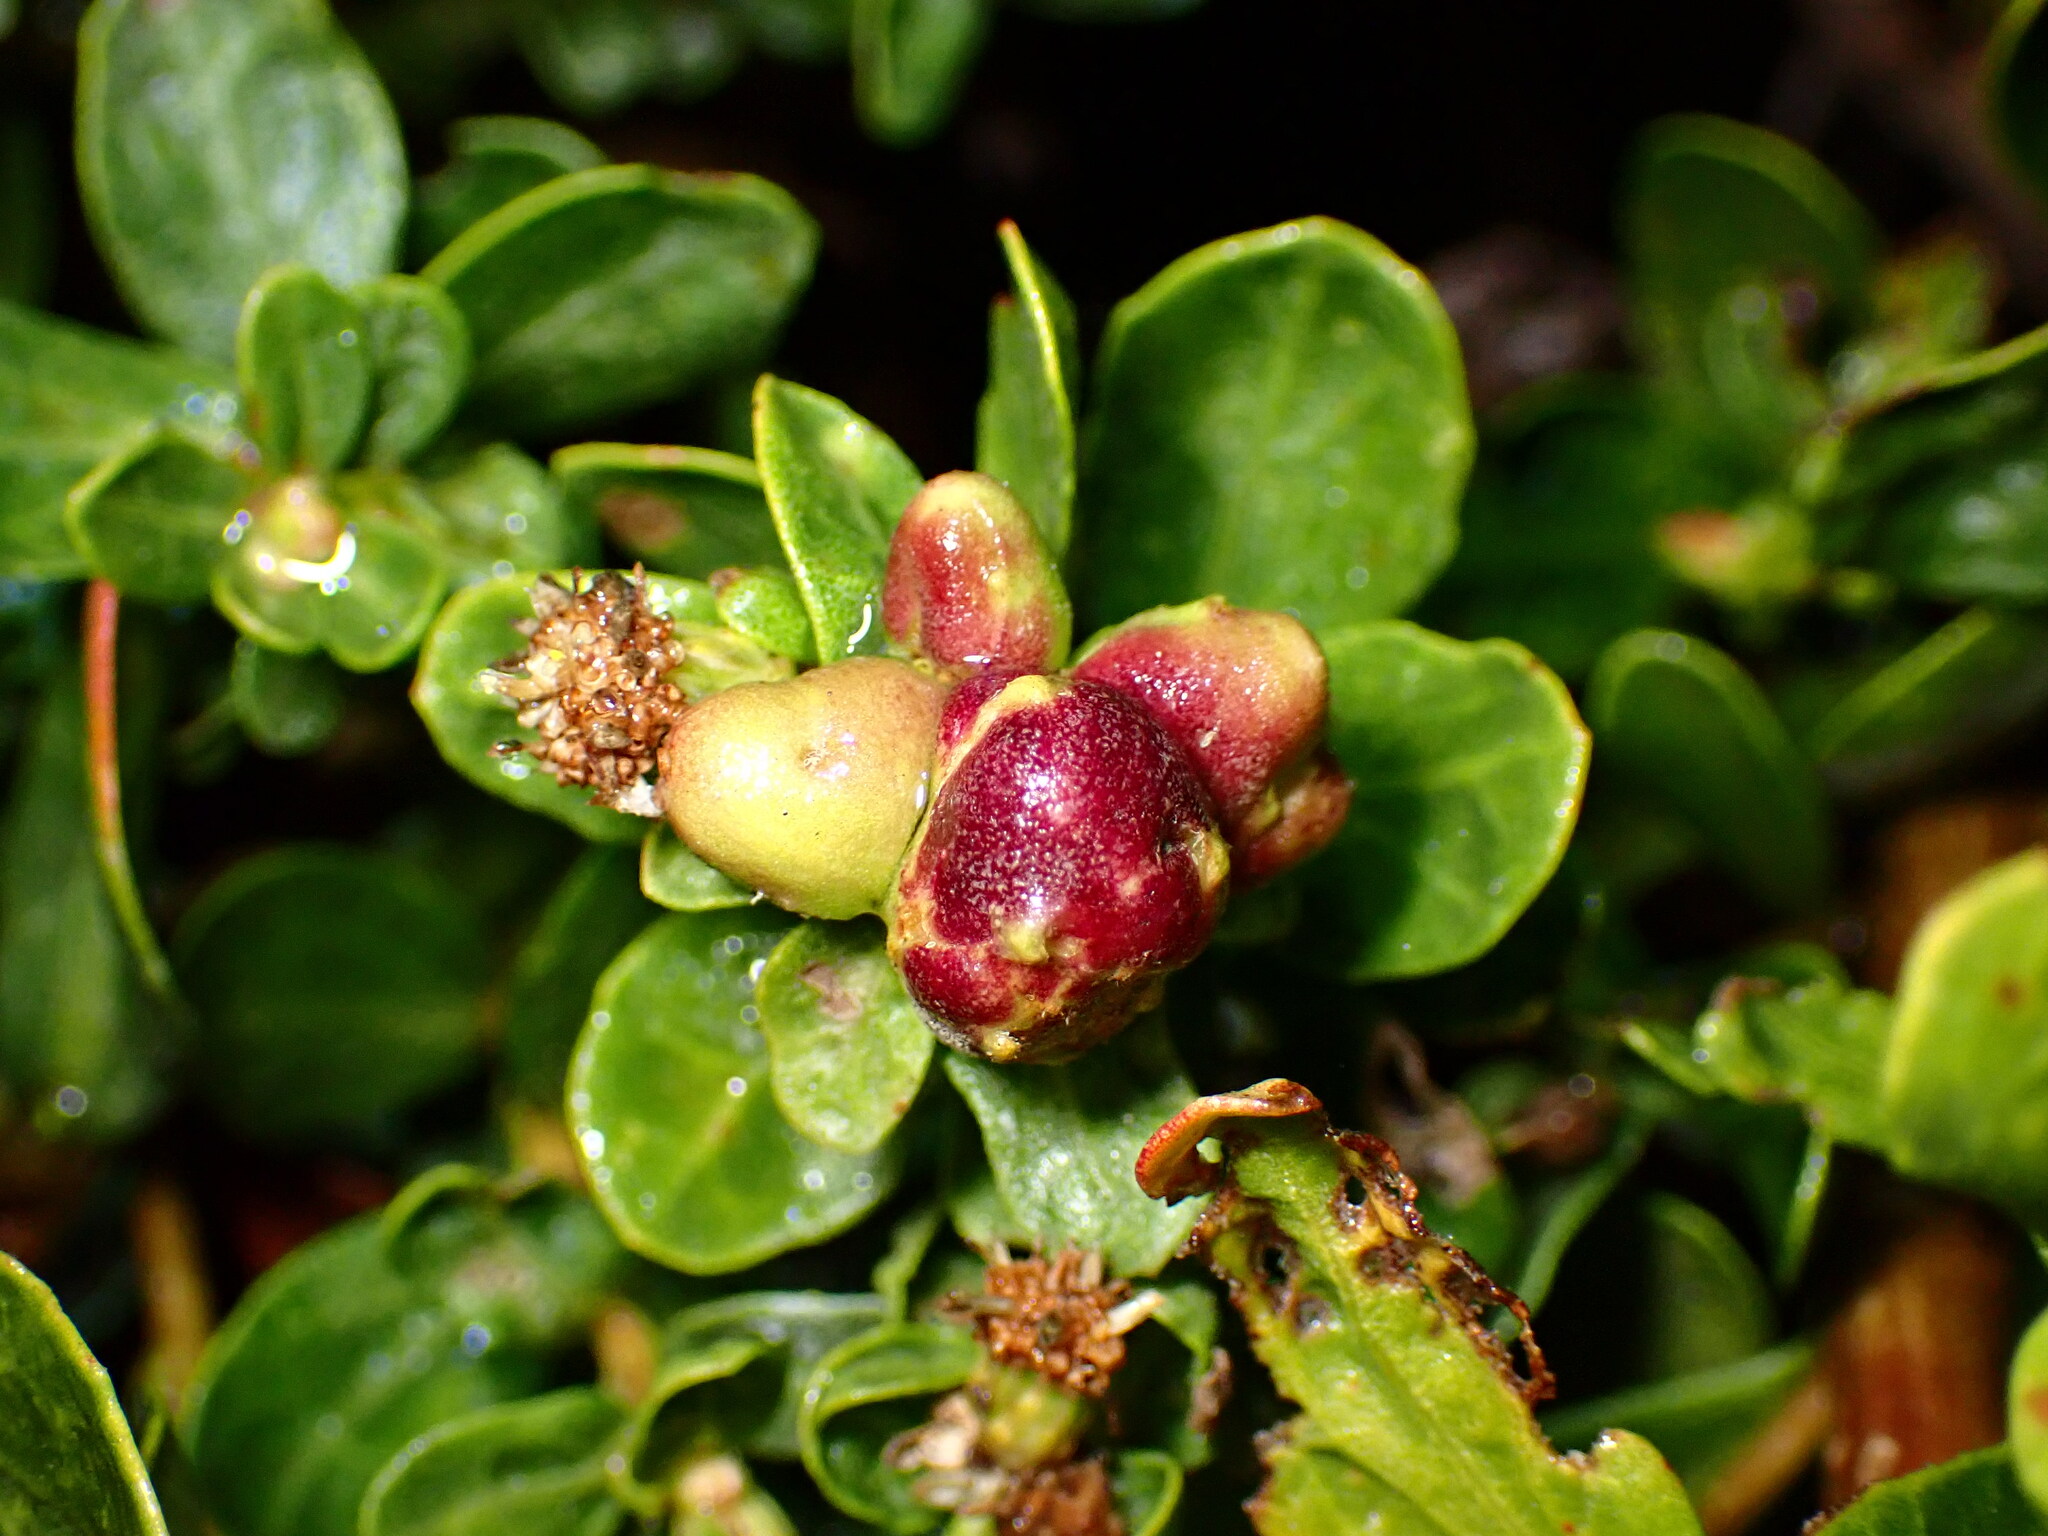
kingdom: Animalia
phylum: Arthropoda
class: Insecta
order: Diptera
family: Cecidomyiidae
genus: Rhopalomyia
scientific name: Rhopalomyia californica
